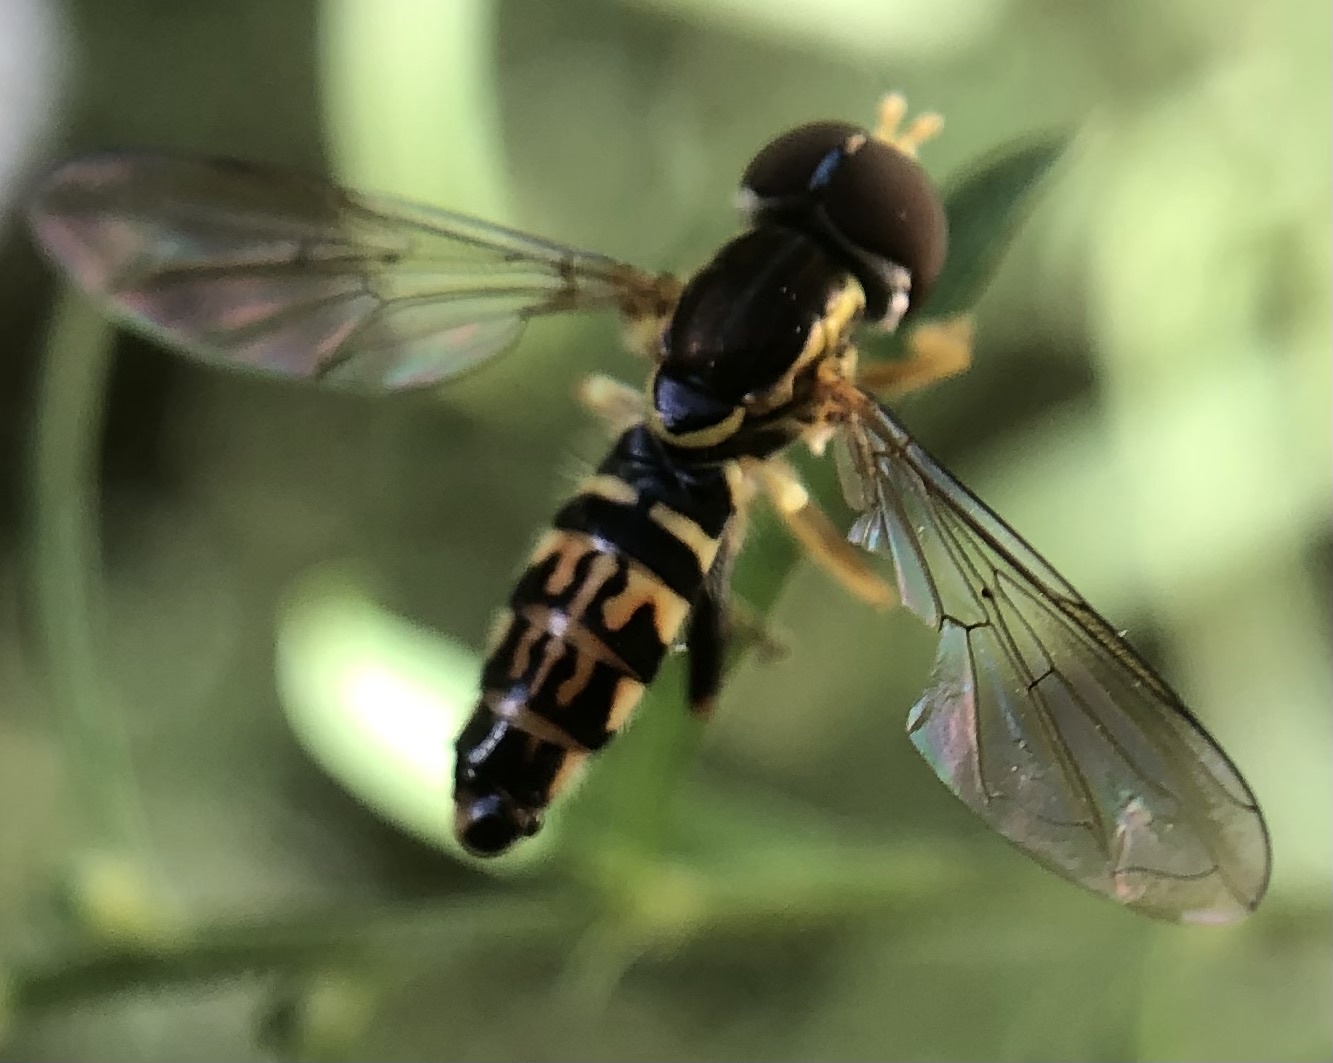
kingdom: Animalia
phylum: Arthropoda
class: Insecta
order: Diptera
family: Syrphidae
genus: Toxomerus
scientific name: Toxomerus geminatus
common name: Eastern calligrapher
